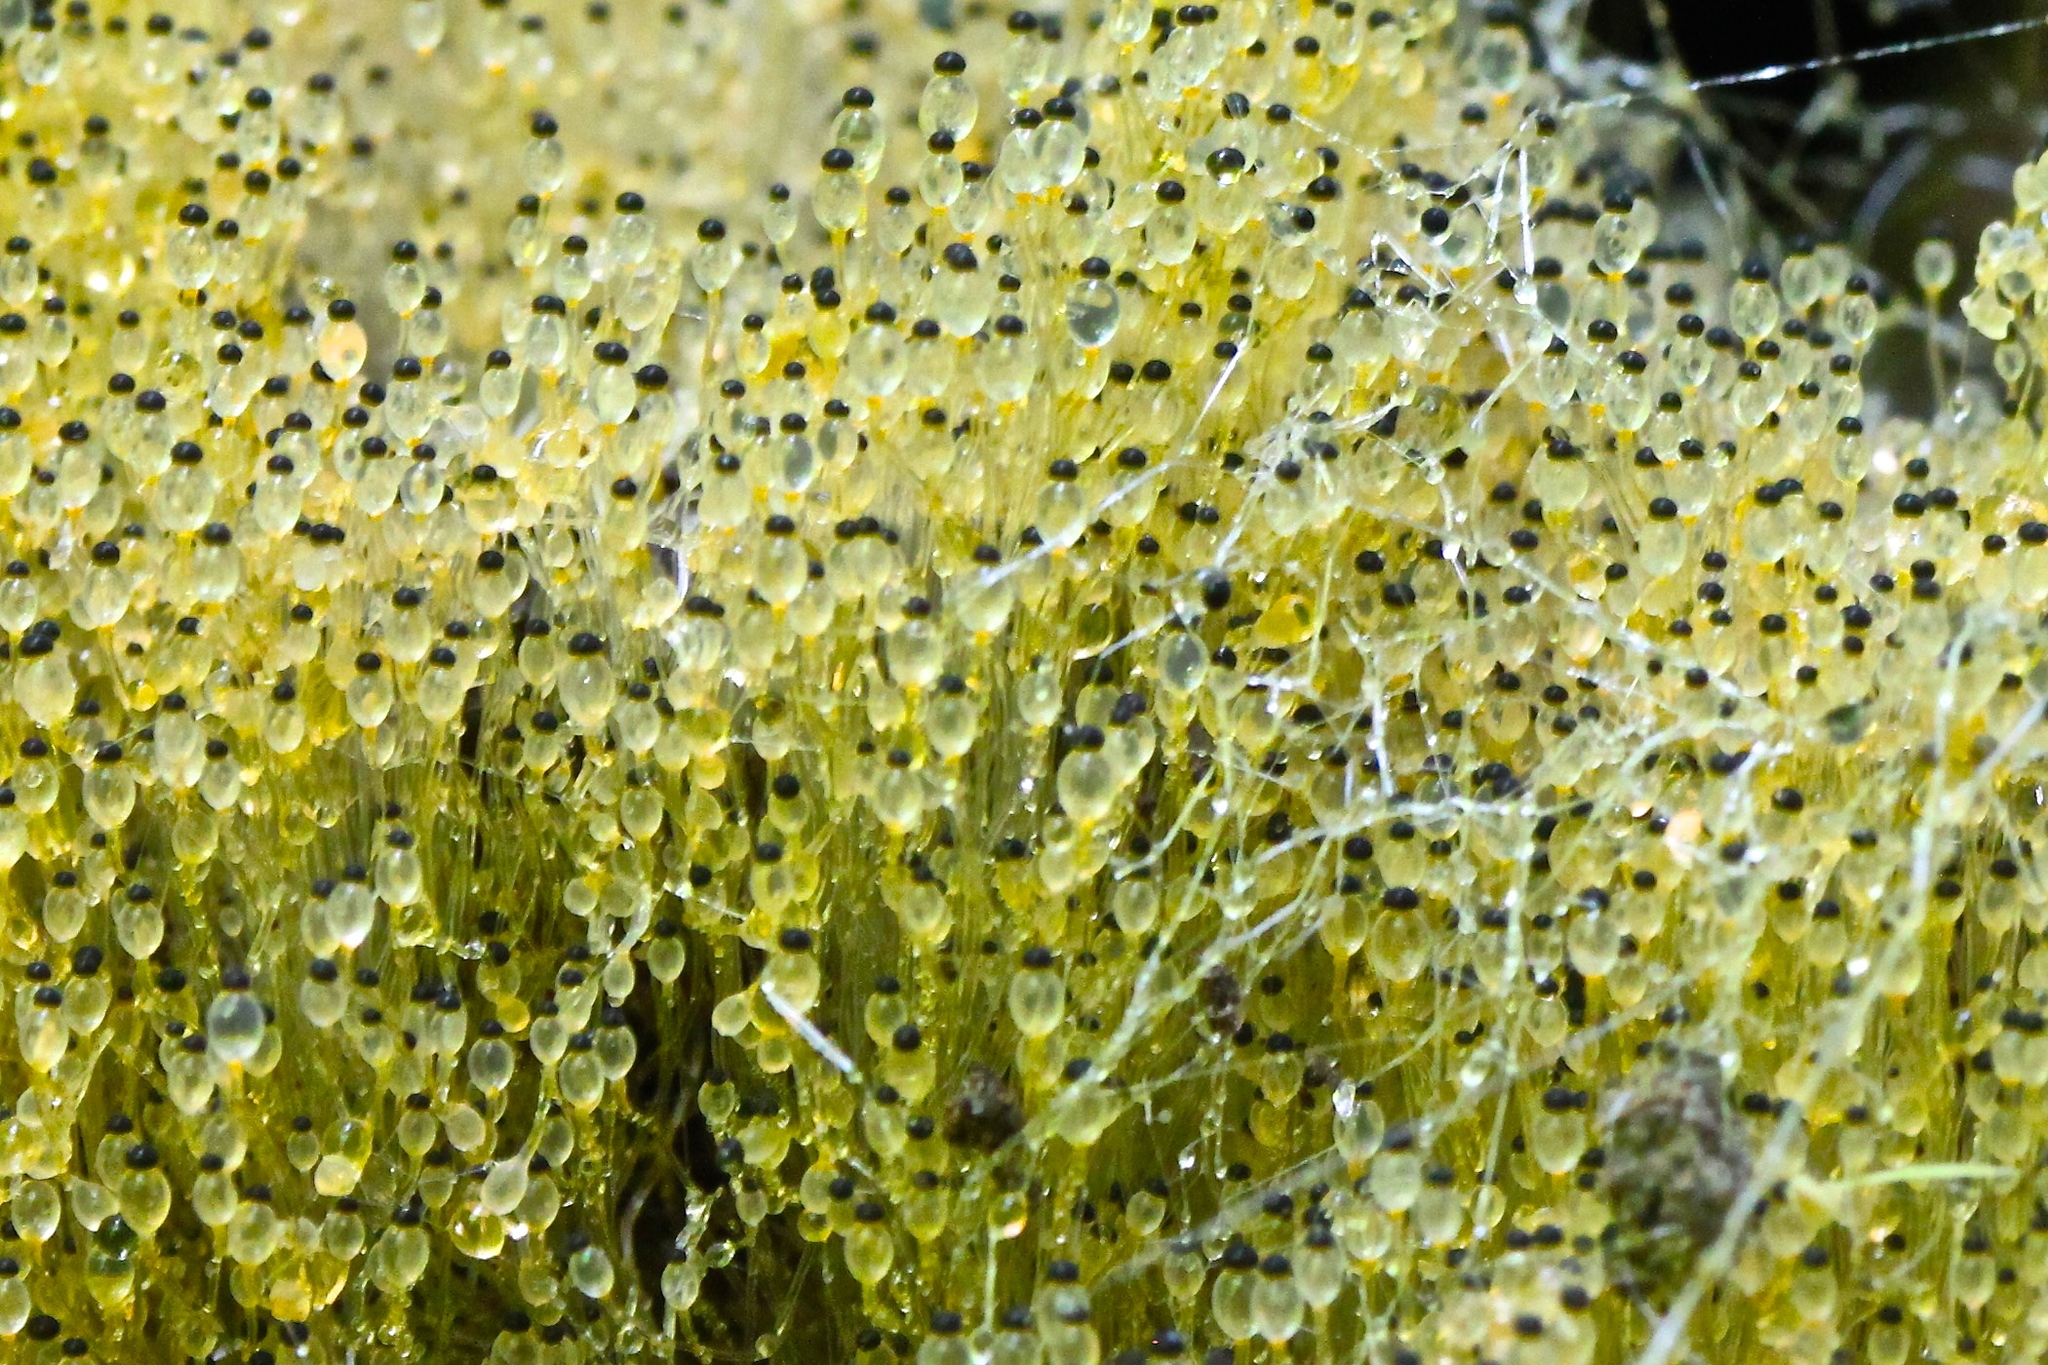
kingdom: Fungi
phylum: Mucoromycota
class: Mucoromycetes
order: Mucorales
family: Pilobolaceae
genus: Pilobolus
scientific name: Pilobolus crystallinus
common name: Dung cannon
